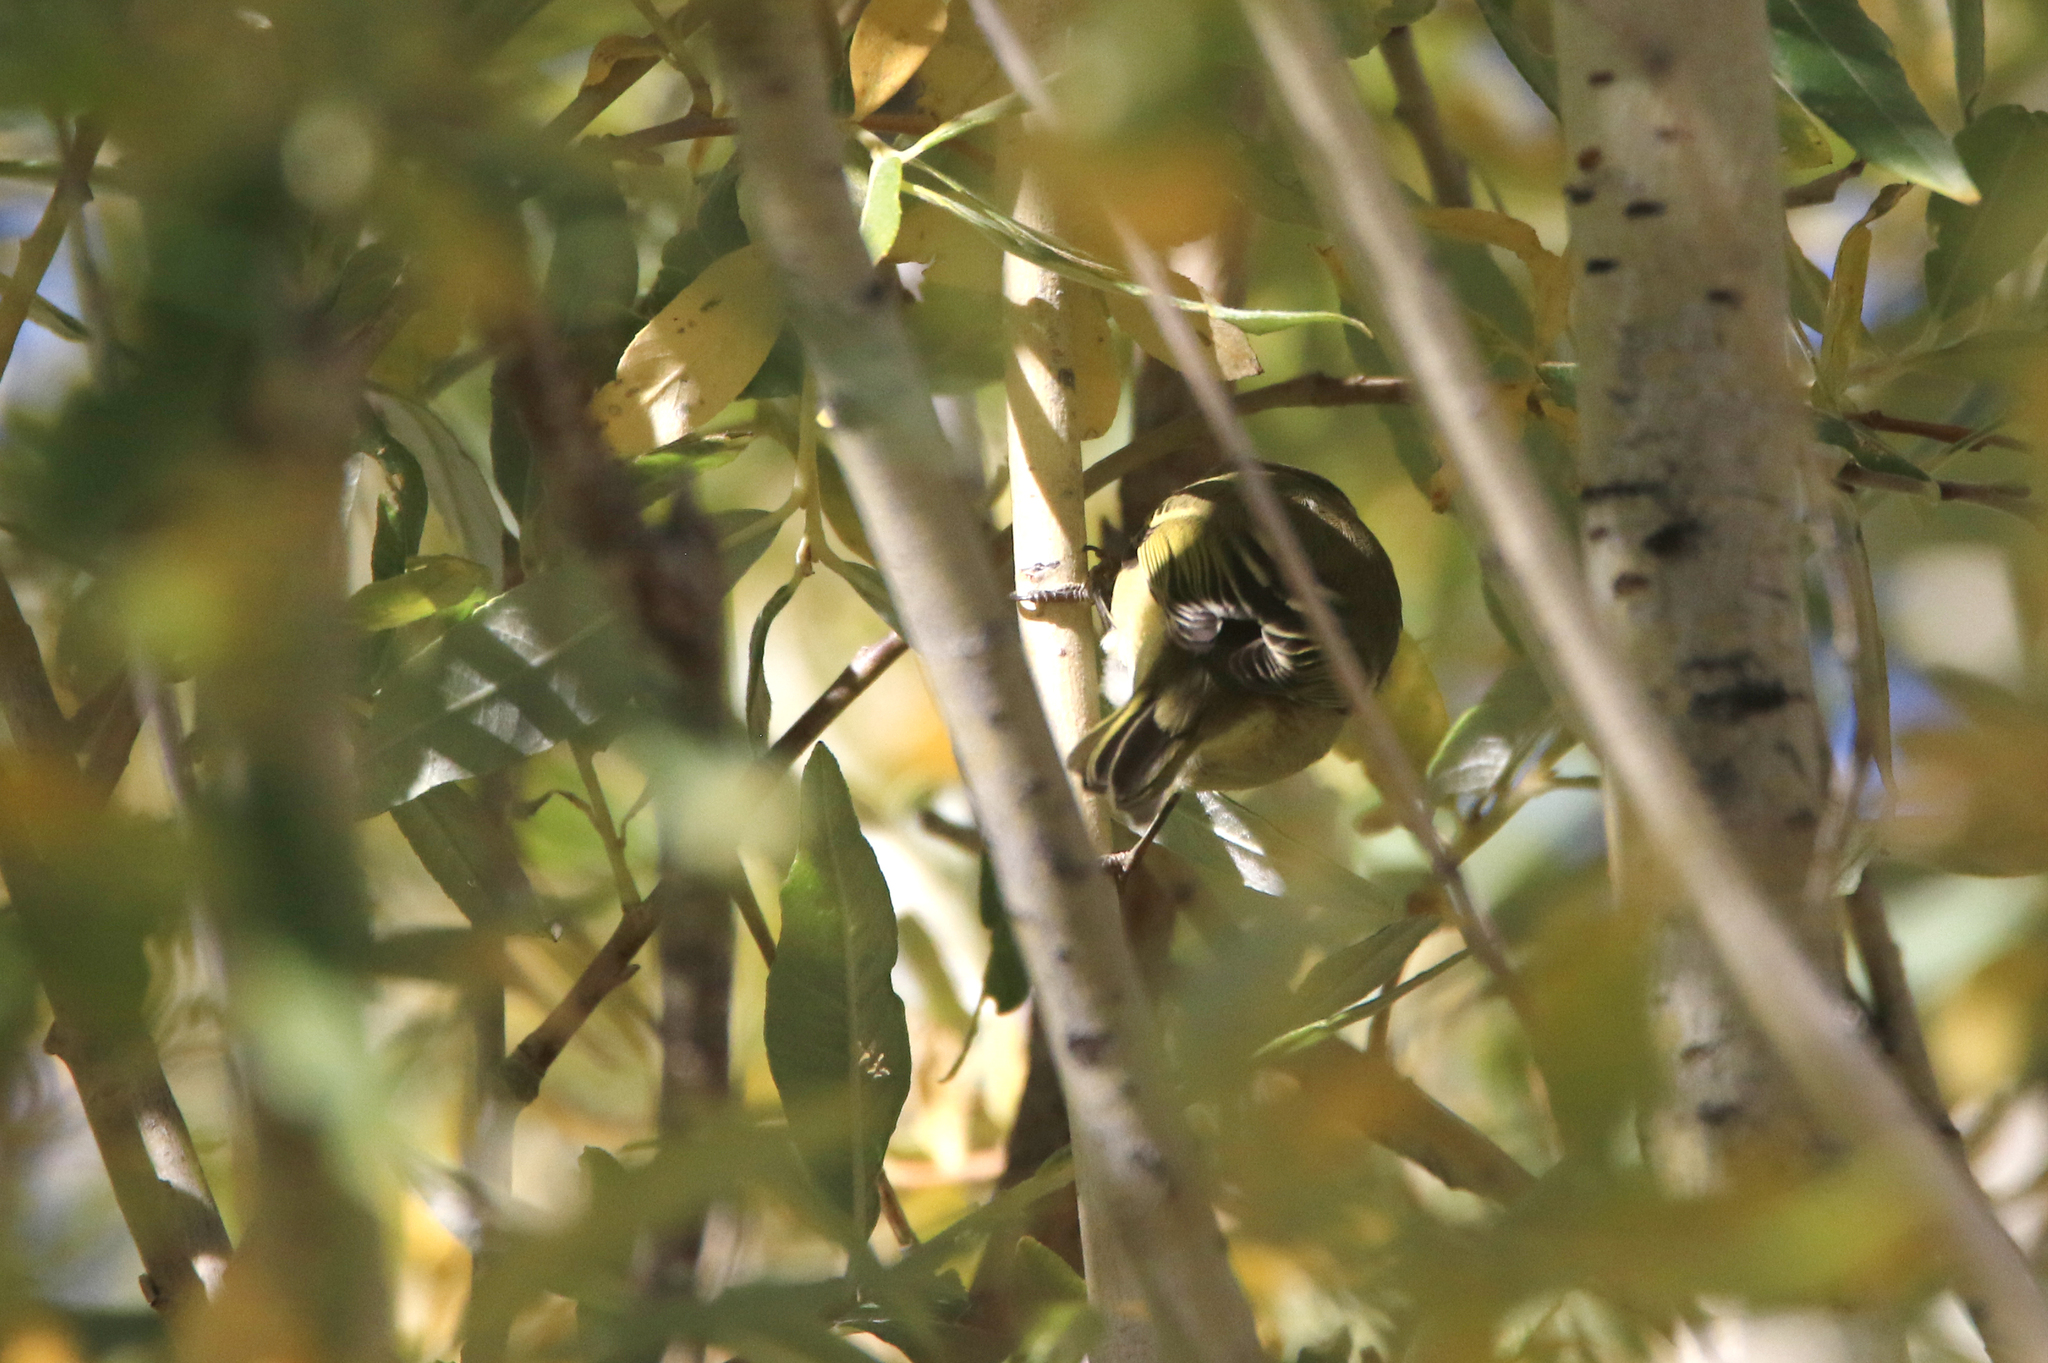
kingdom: Animalia
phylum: Chordata
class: Aves
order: Passeriformes
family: Phylloscopidae
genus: Phylloscopus
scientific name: Phylloscopus humei
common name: Hume's leaf warbler
